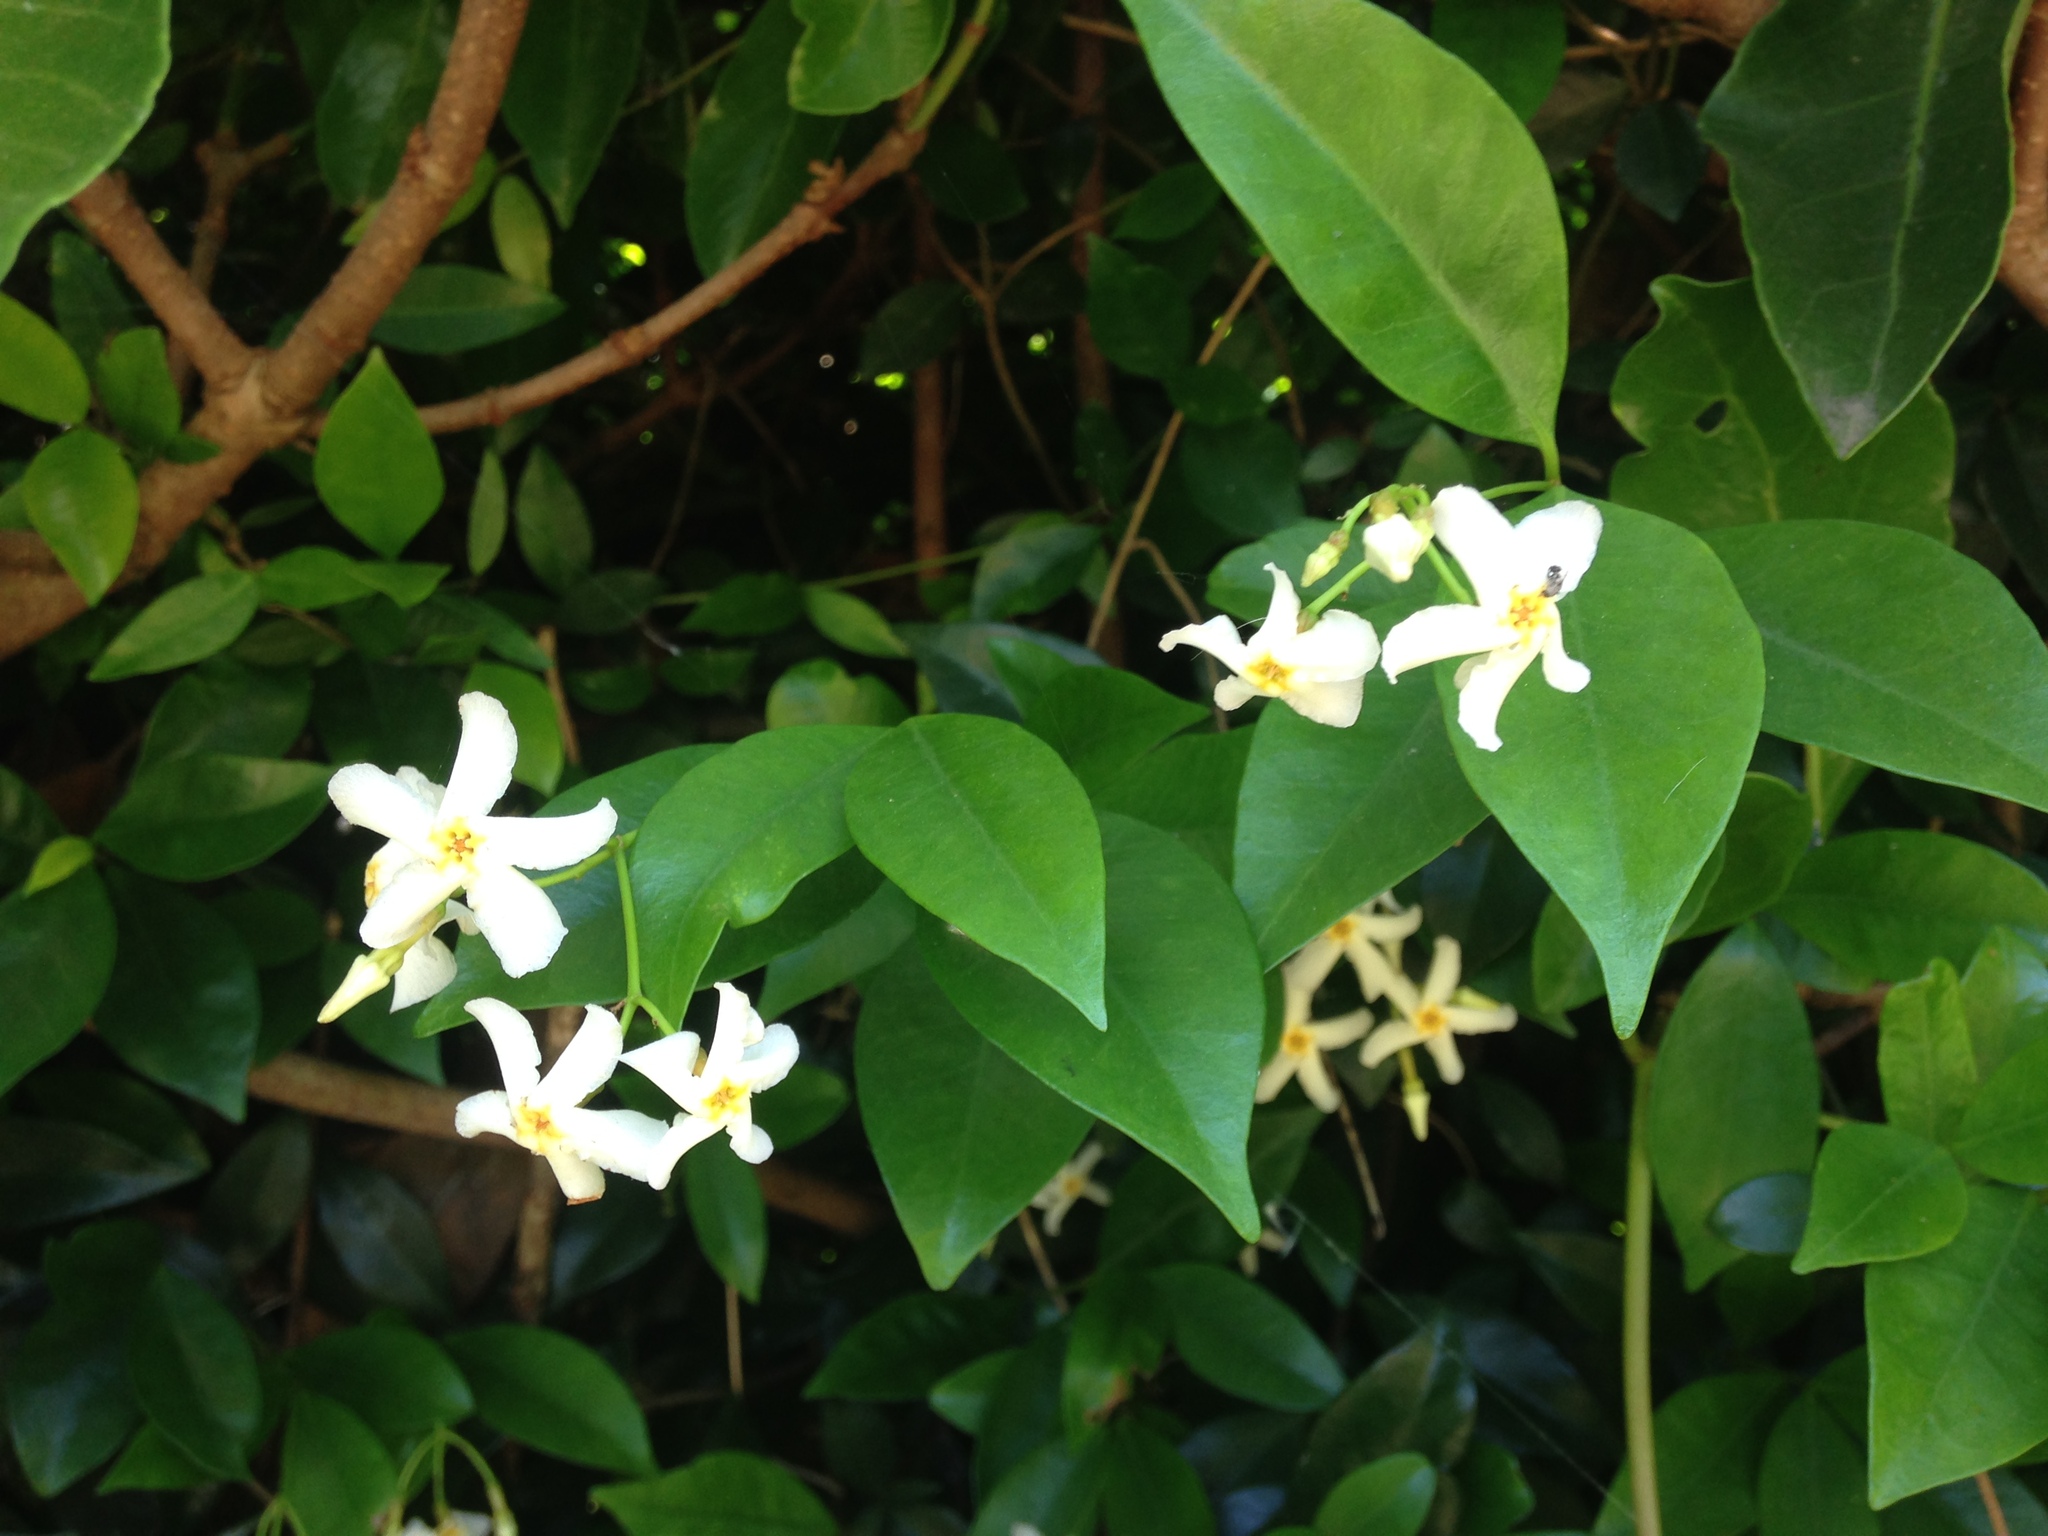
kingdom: Plantae
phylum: Tracheophyta
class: Magnoliopsida
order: Gentianales
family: Apocynaceae
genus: Trachelospermum
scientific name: Trachelospermum asiaticum
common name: Asiatic jasmine
